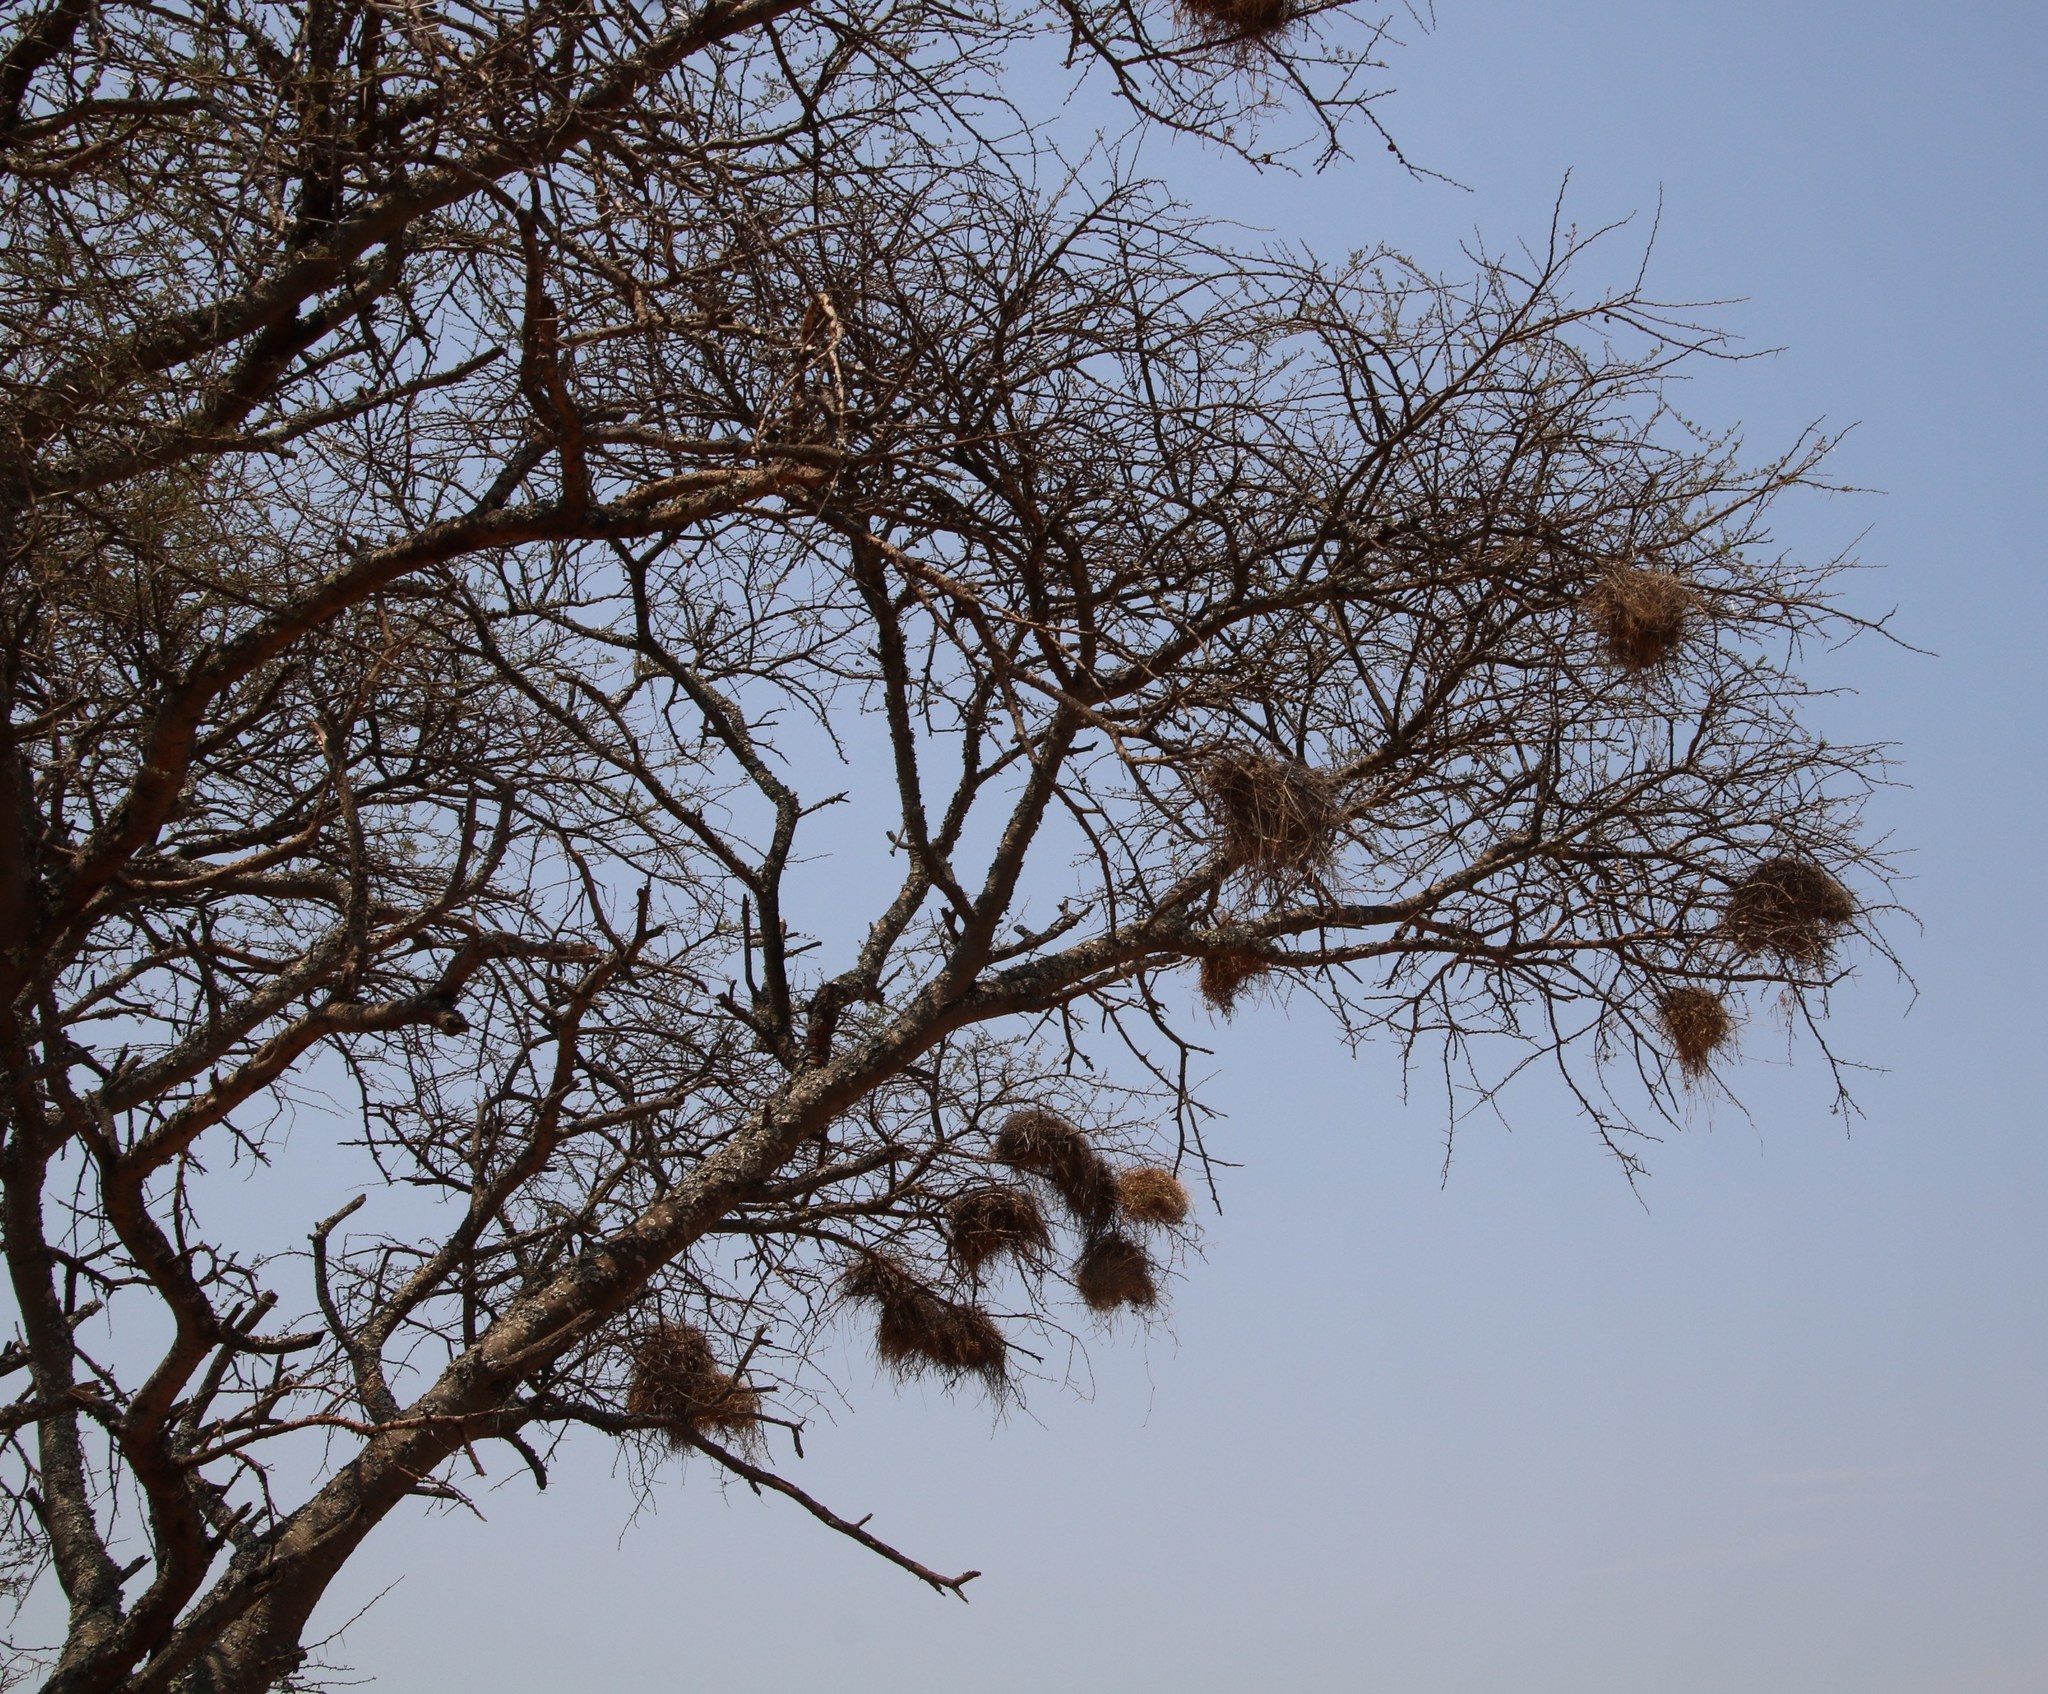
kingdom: Animalia
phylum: Chordata
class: Aves
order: Passeriformes
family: Passeridae
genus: Plocepasser
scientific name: Plocepasser mahali
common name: White-browed sparrow-weaver
